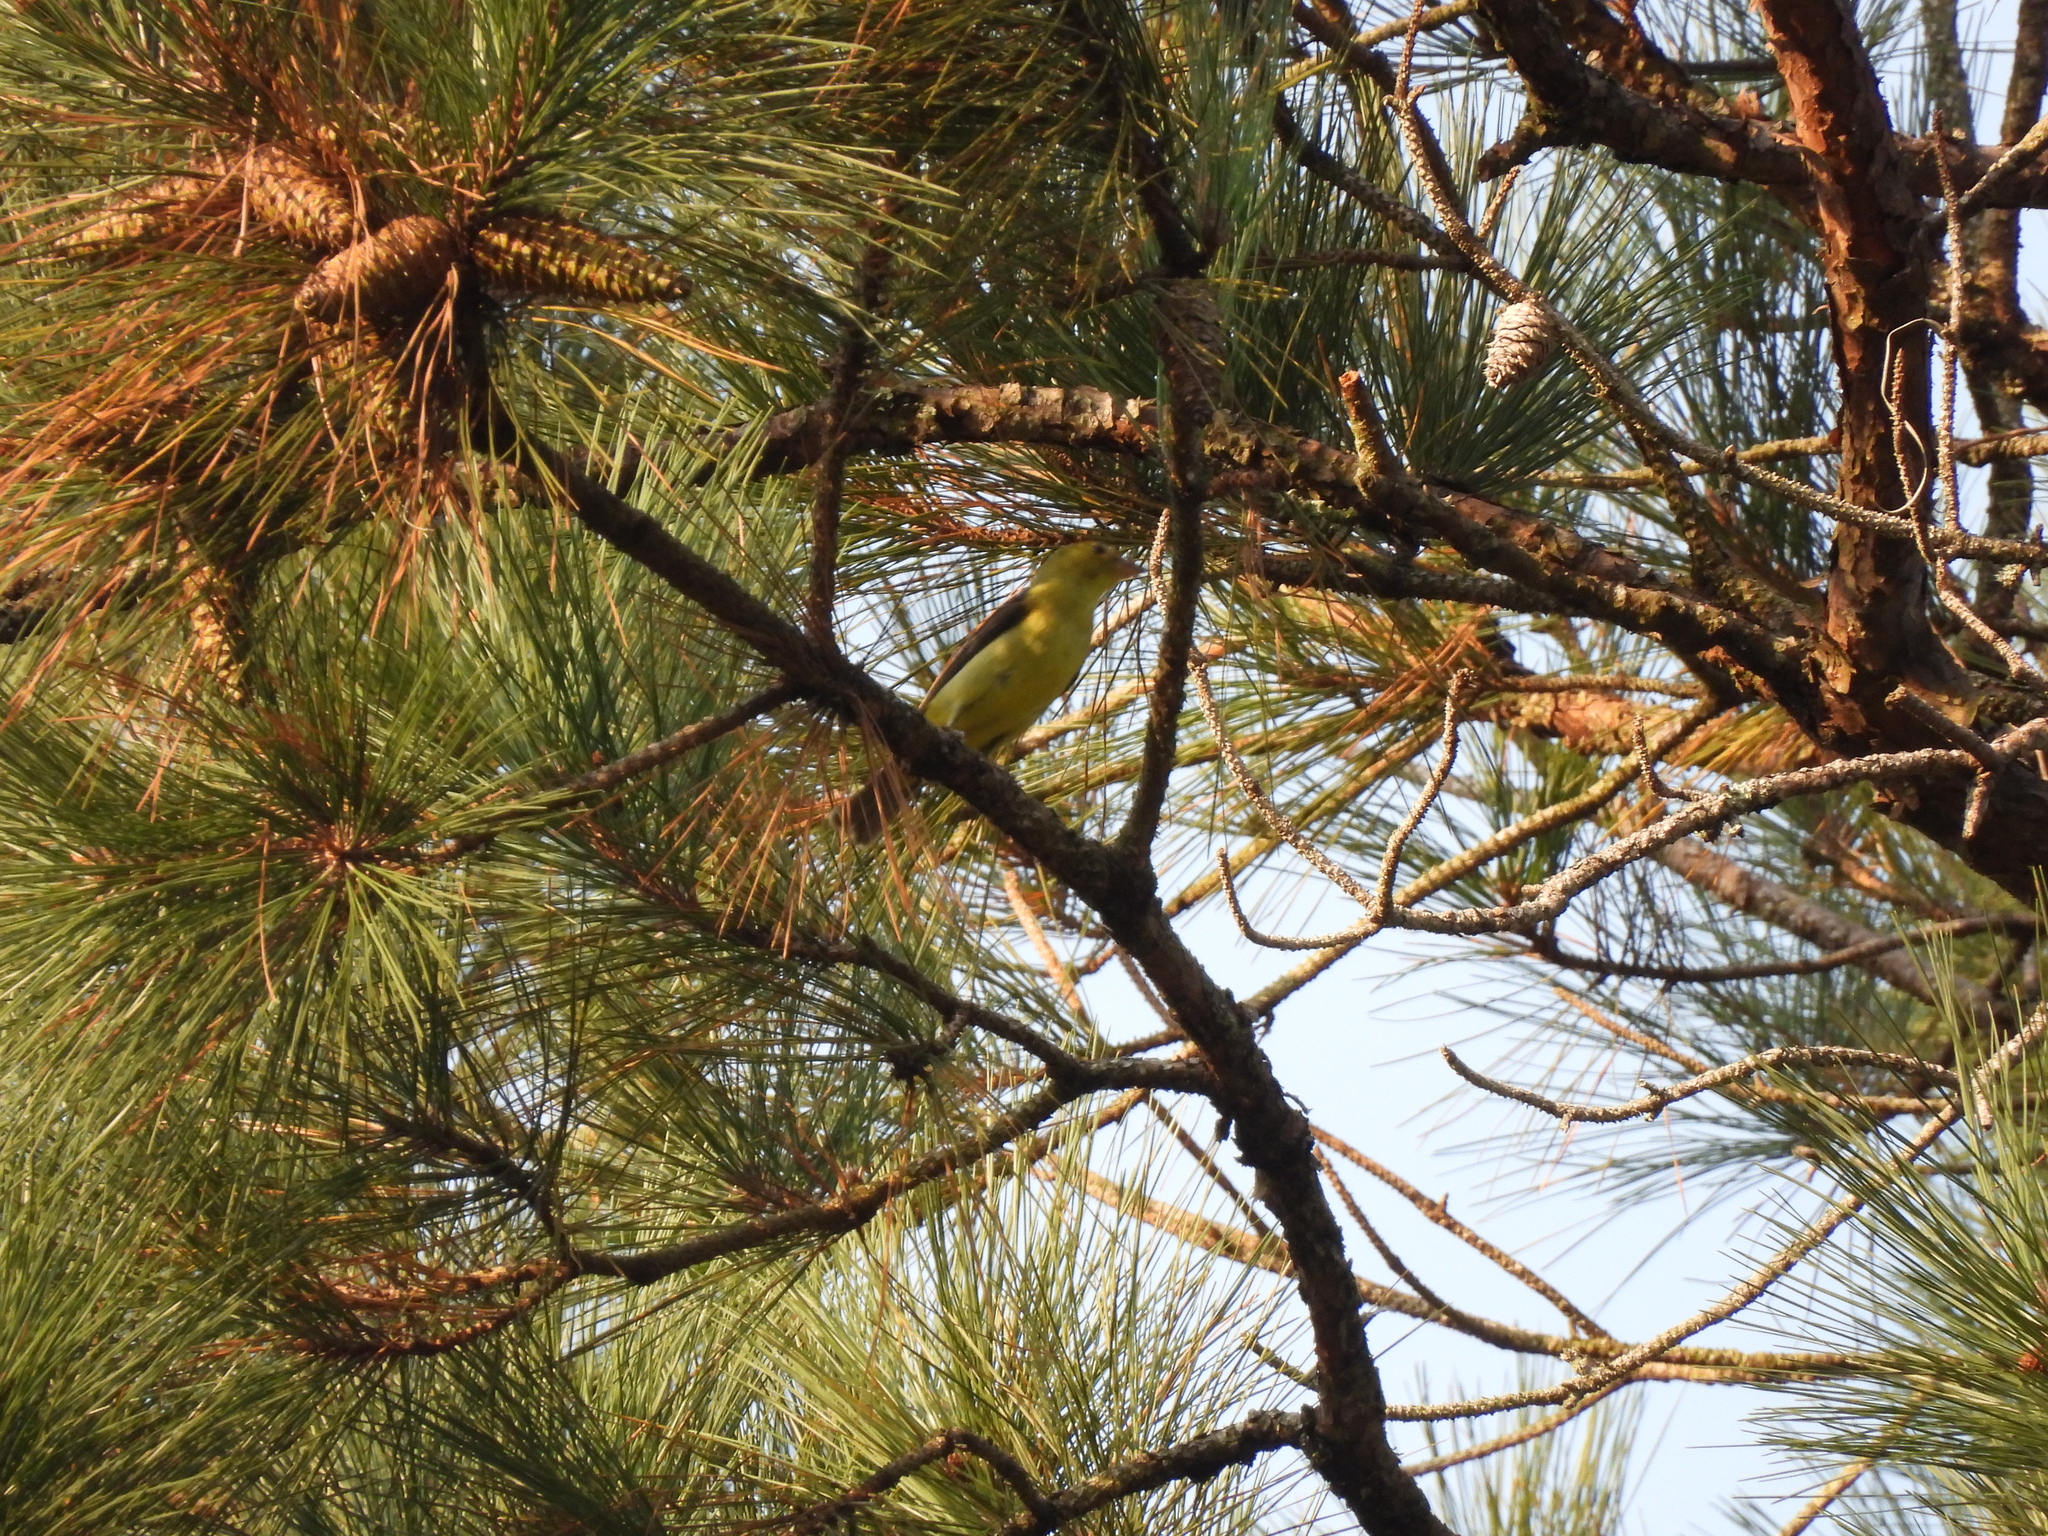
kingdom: Animalia
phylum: Chordata
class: Aves
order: Passeriformes
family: Cardinalidae
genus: Piranga
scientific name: Piranga olivacea
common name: Scarlet tanager
